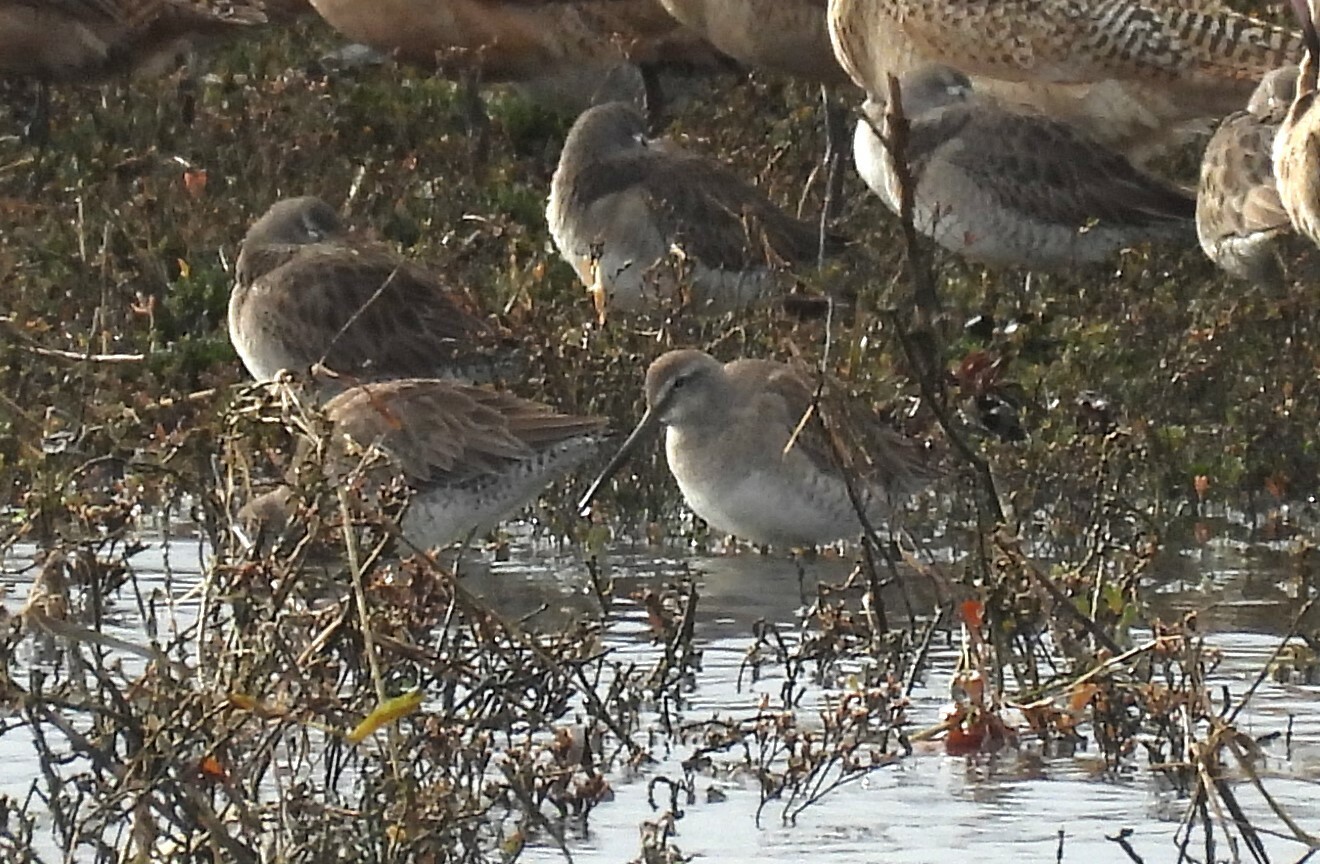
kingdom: Animalia
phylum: Chordata
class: Aves
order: Charadriiformes
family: Scolopacidae
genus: Limnodromus
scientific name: Limnodromus scolopaceus
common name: Long-billed dowitcher
